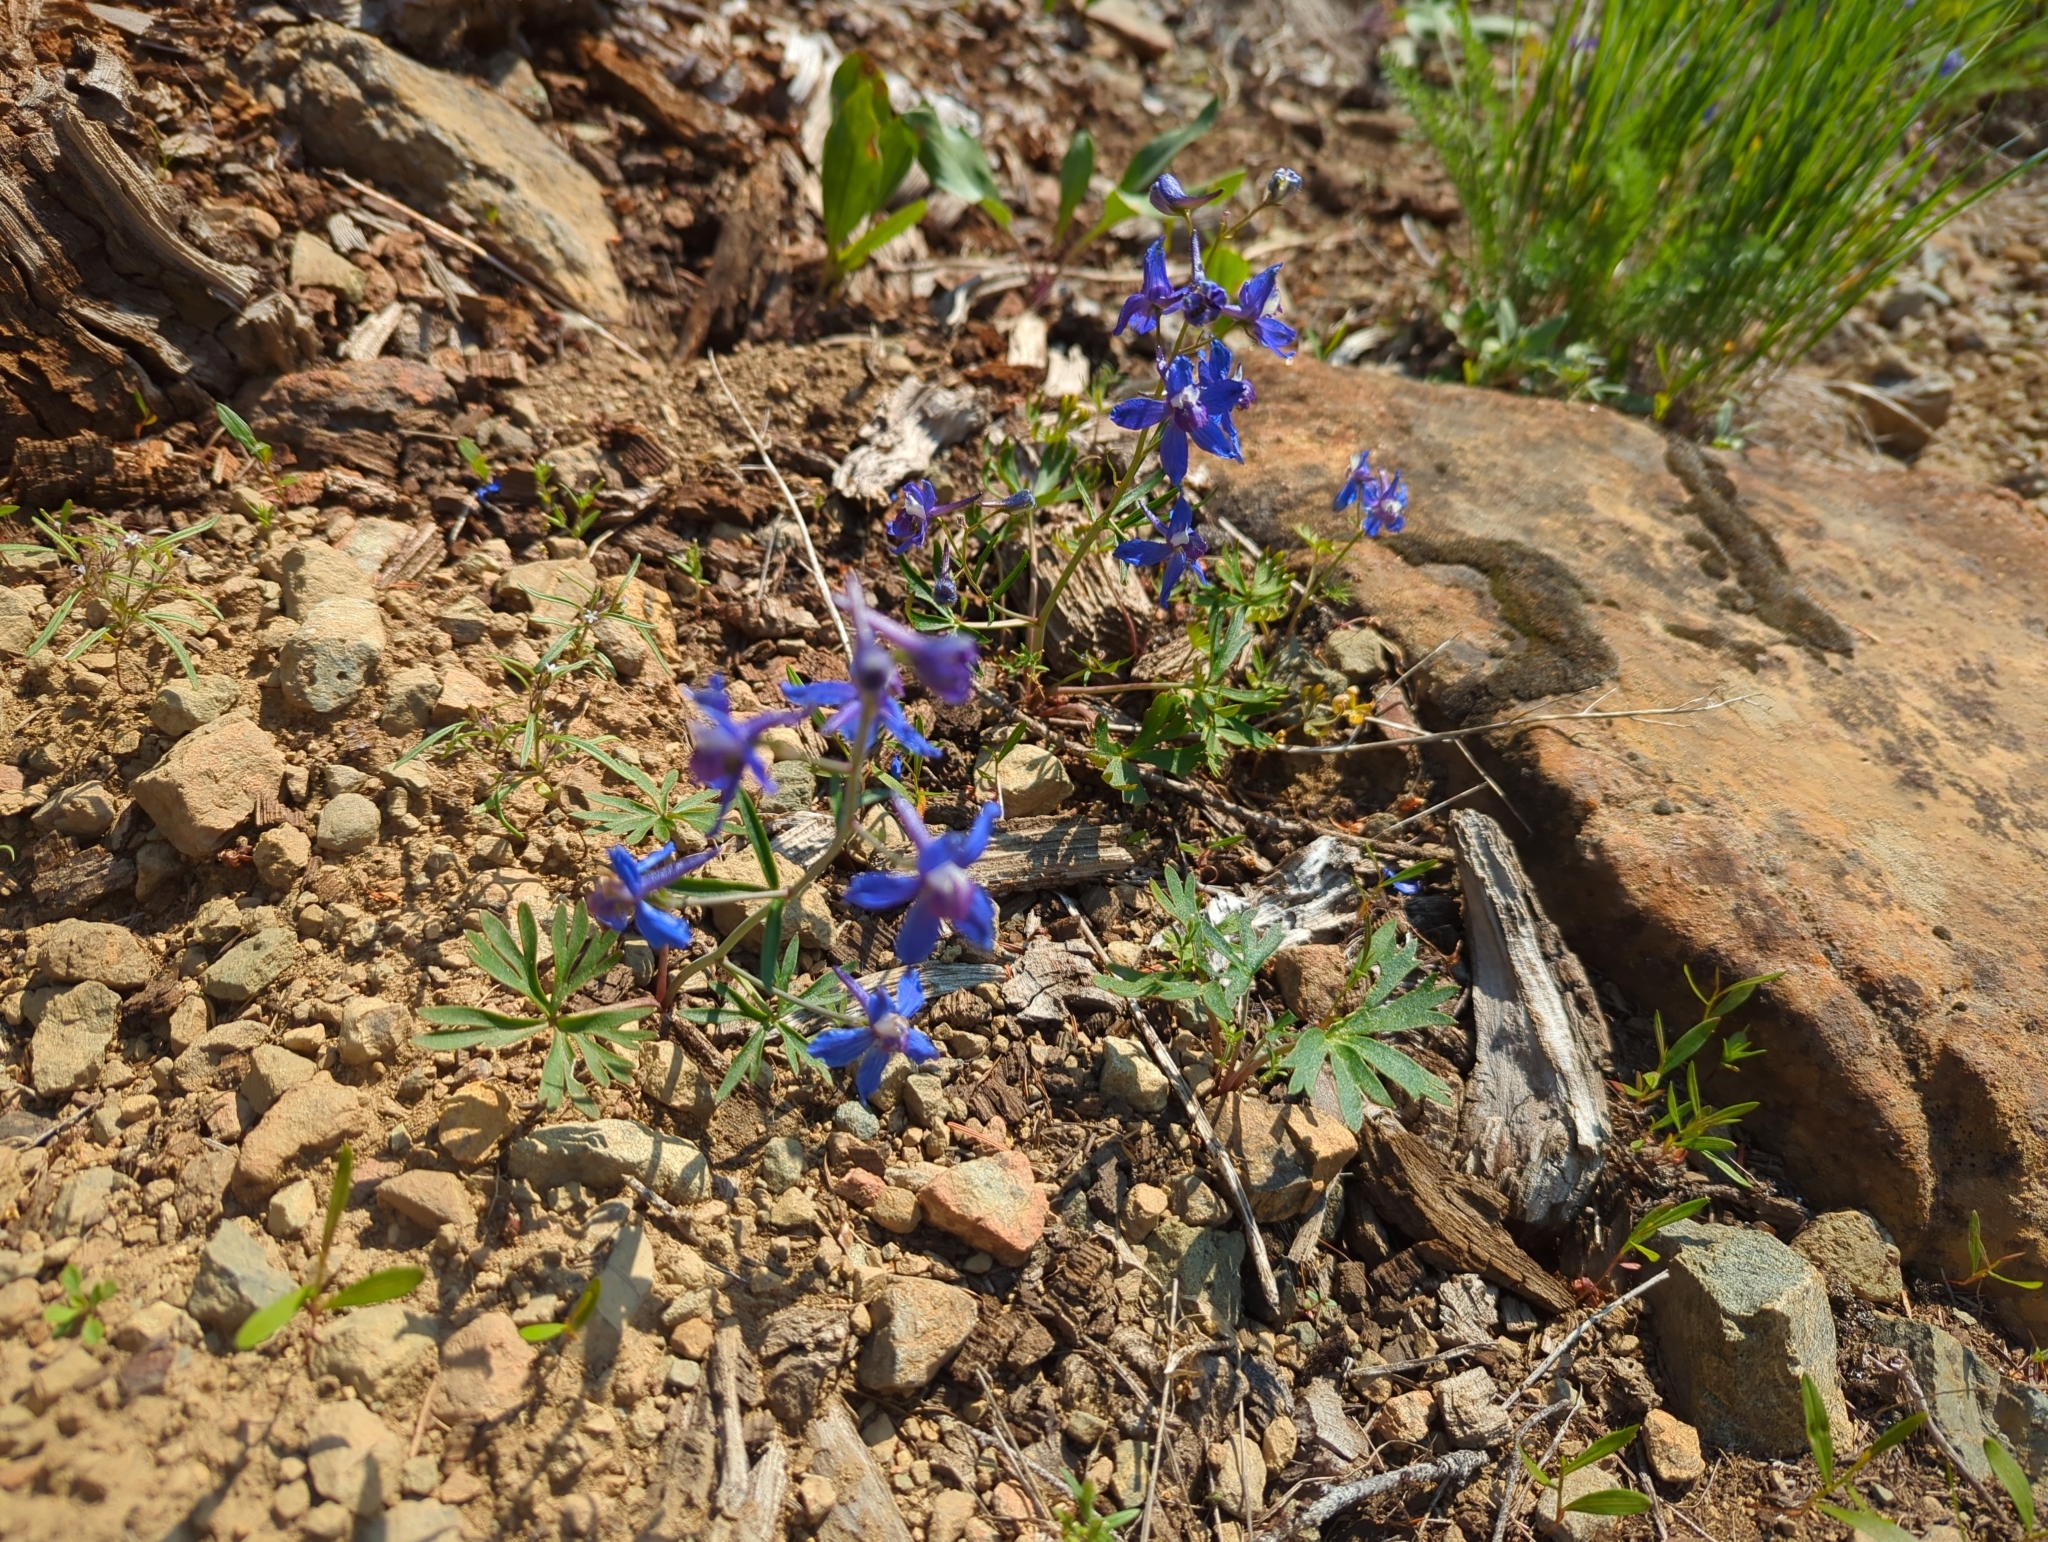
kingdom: Plantae
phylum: Tracheophyta
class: Magnoliopsida
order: Ranunculales
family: Ranunculaceae
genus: Delphinium
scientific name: Delphinium nuttallianum
